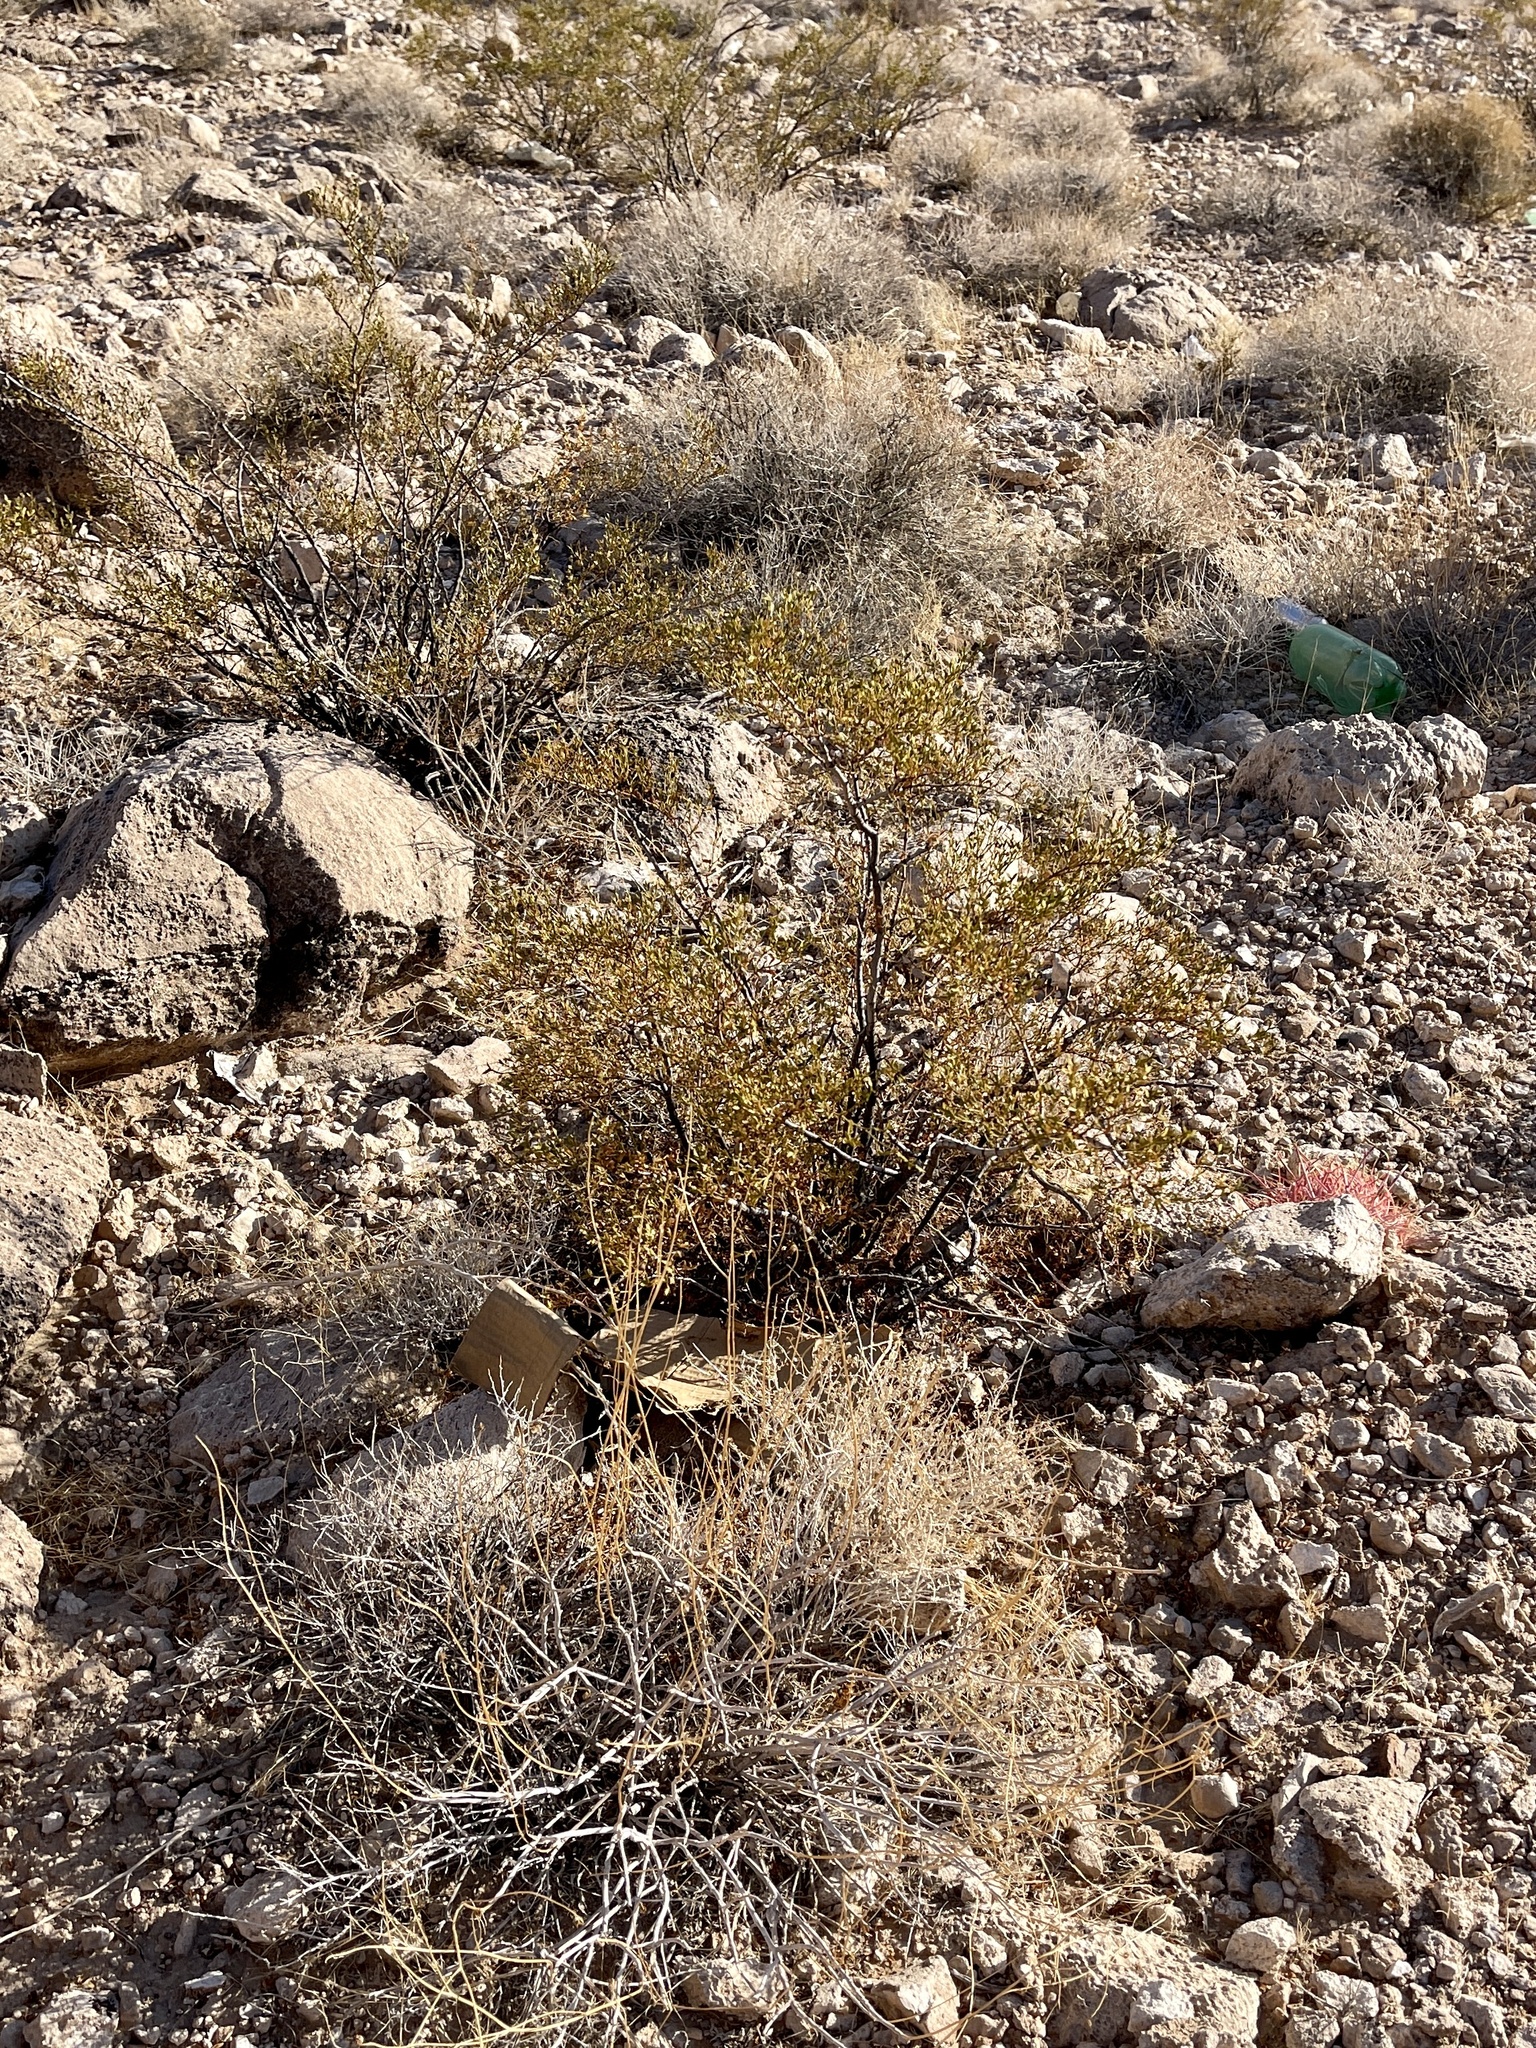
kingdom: Plantae
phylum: Tracheophyta
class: Magnoliopsida
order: Zygophyllales
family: Zygophyllaceae
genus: Larrea
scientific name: Larrea tridentata
